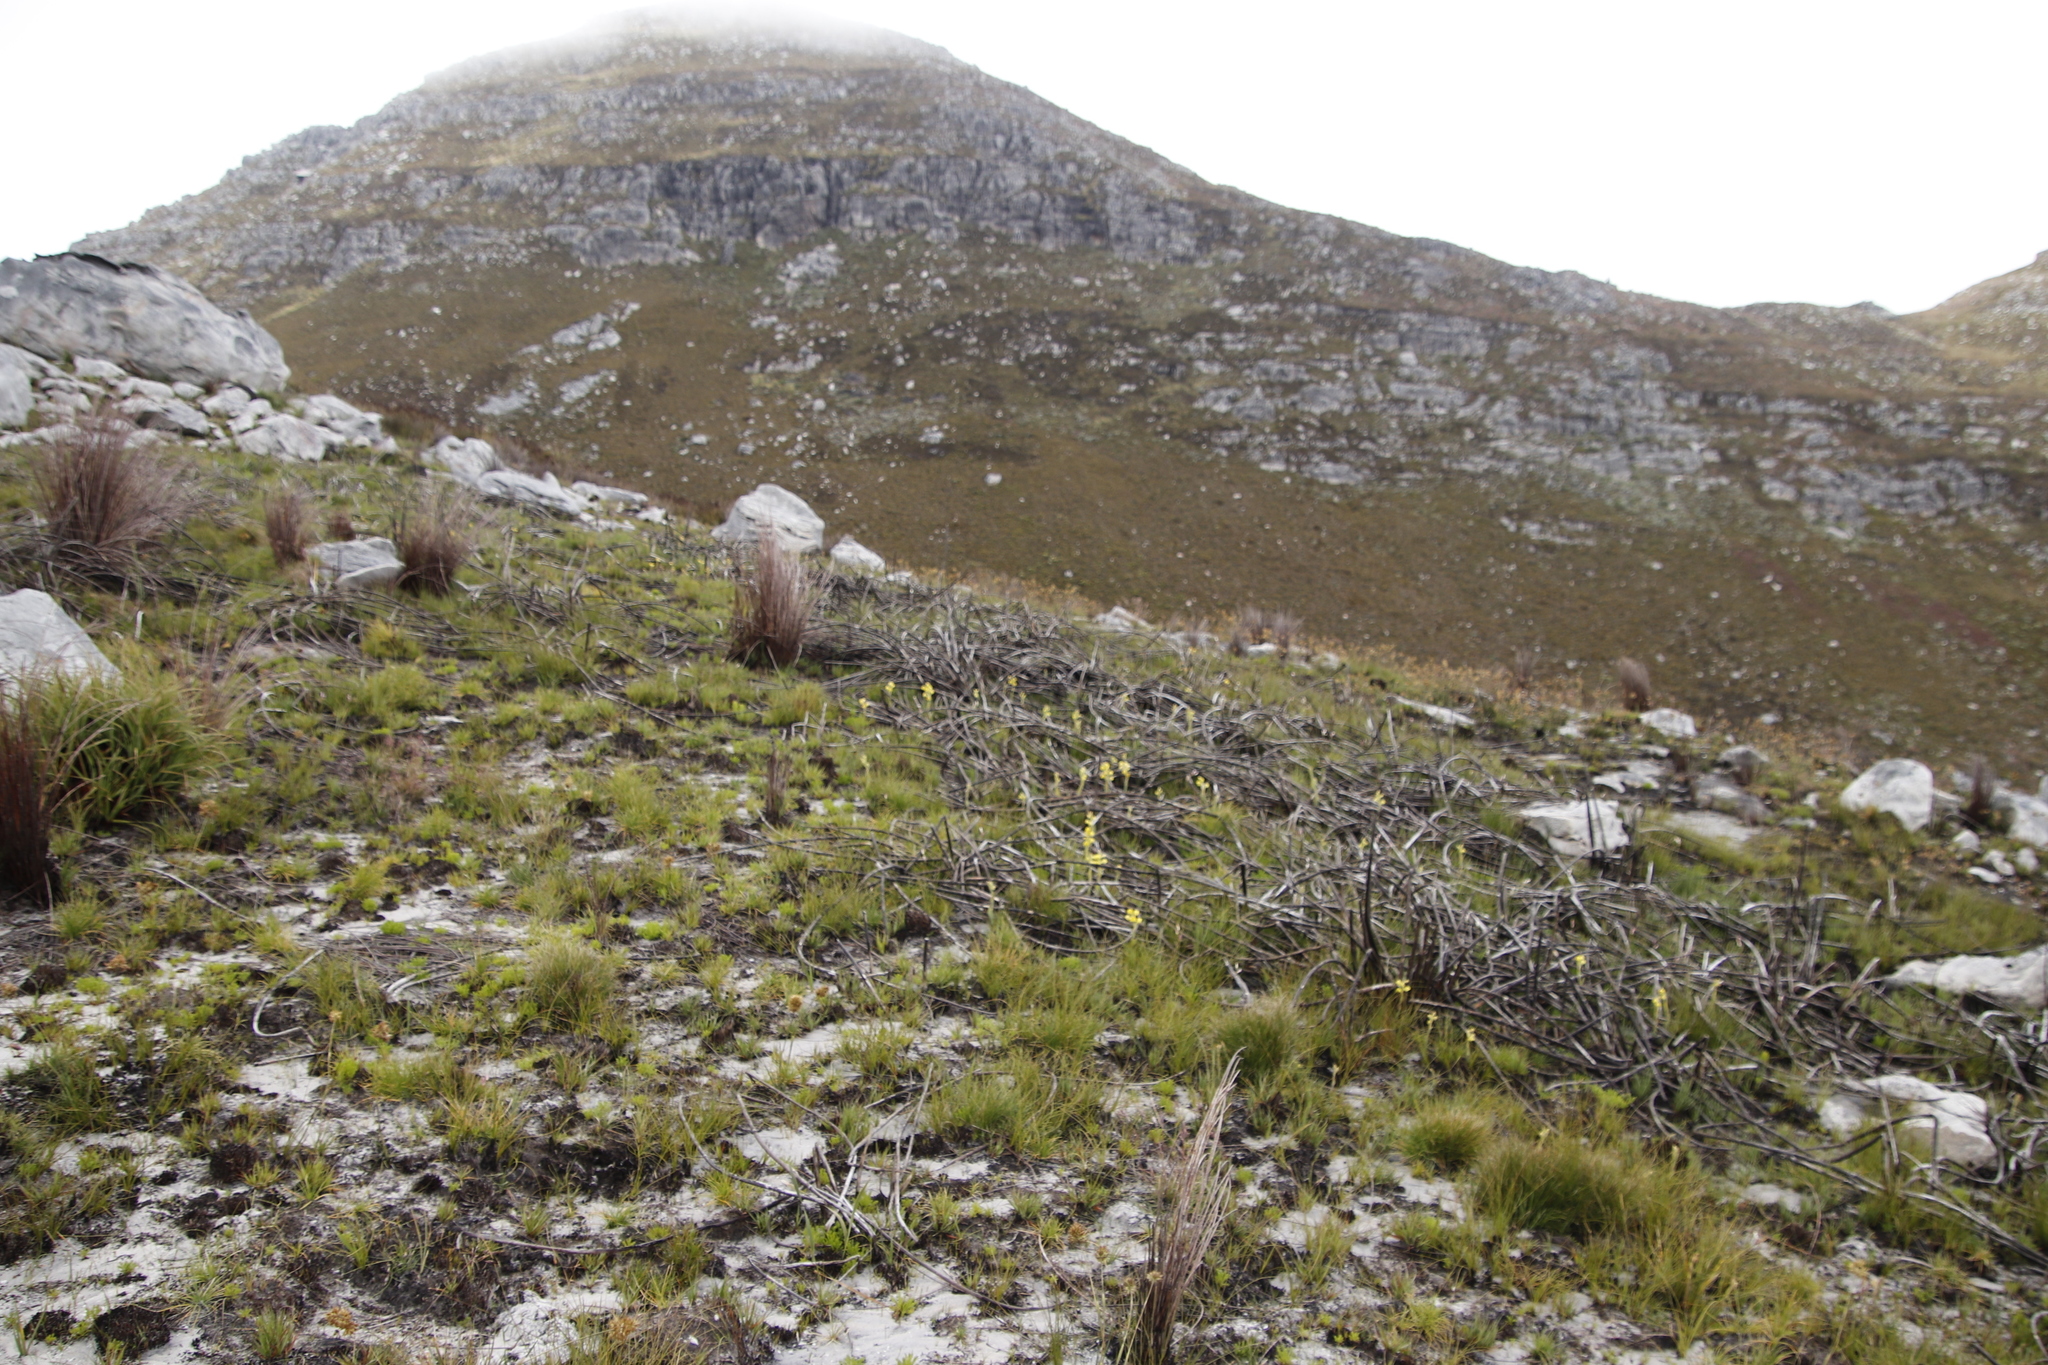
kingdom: Plantae
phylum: Tracheophyta
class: Liliopsida
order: Poales
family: Restionaceae
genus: Elegia
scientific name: Elegia mucronata
